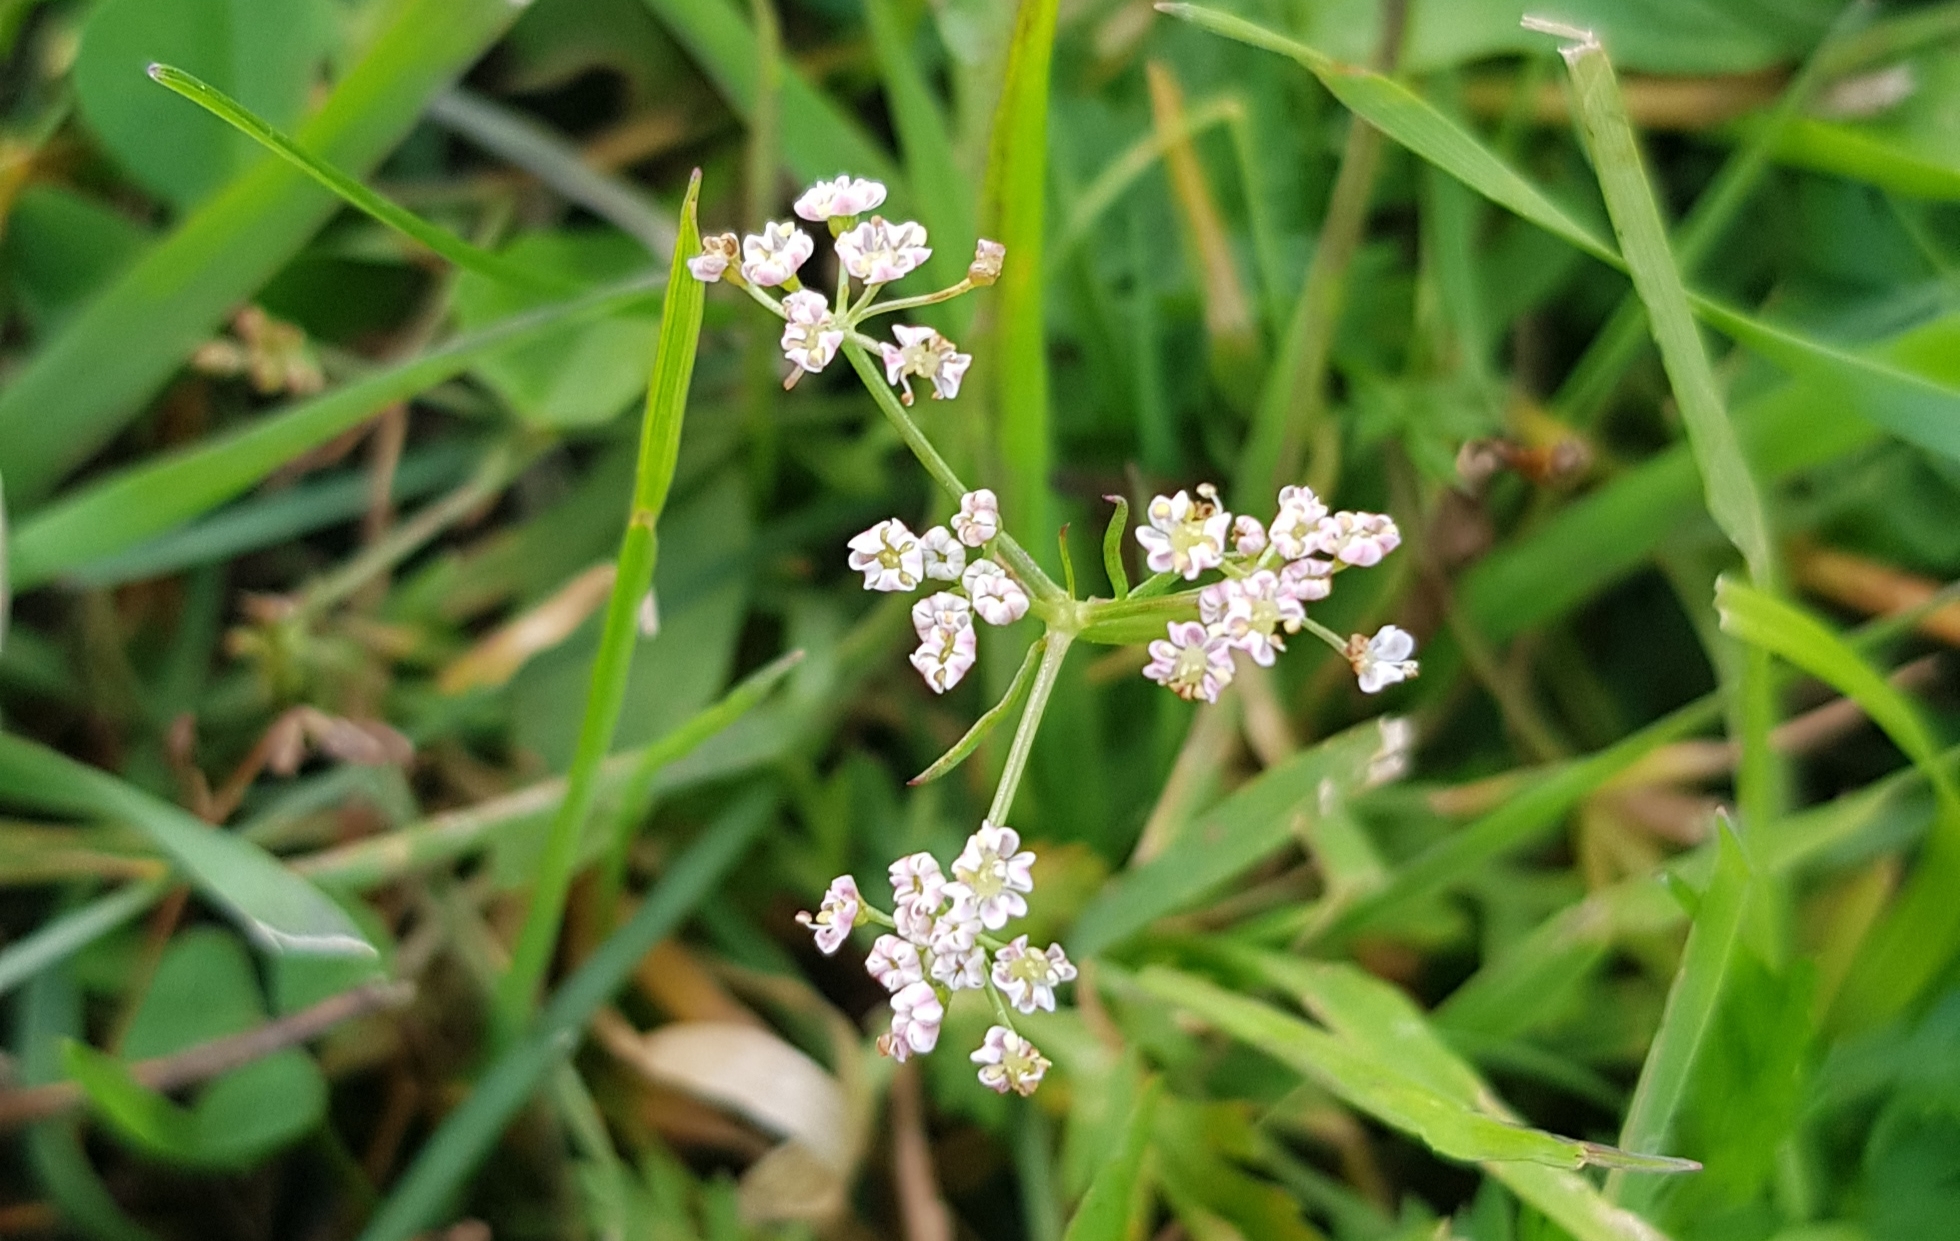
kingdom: Plantae
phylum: Tracheophyta
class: Magnoliopsida
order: Apiales
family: Apiaceae
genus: Carum
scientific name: Carum carvi
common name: Caraway
